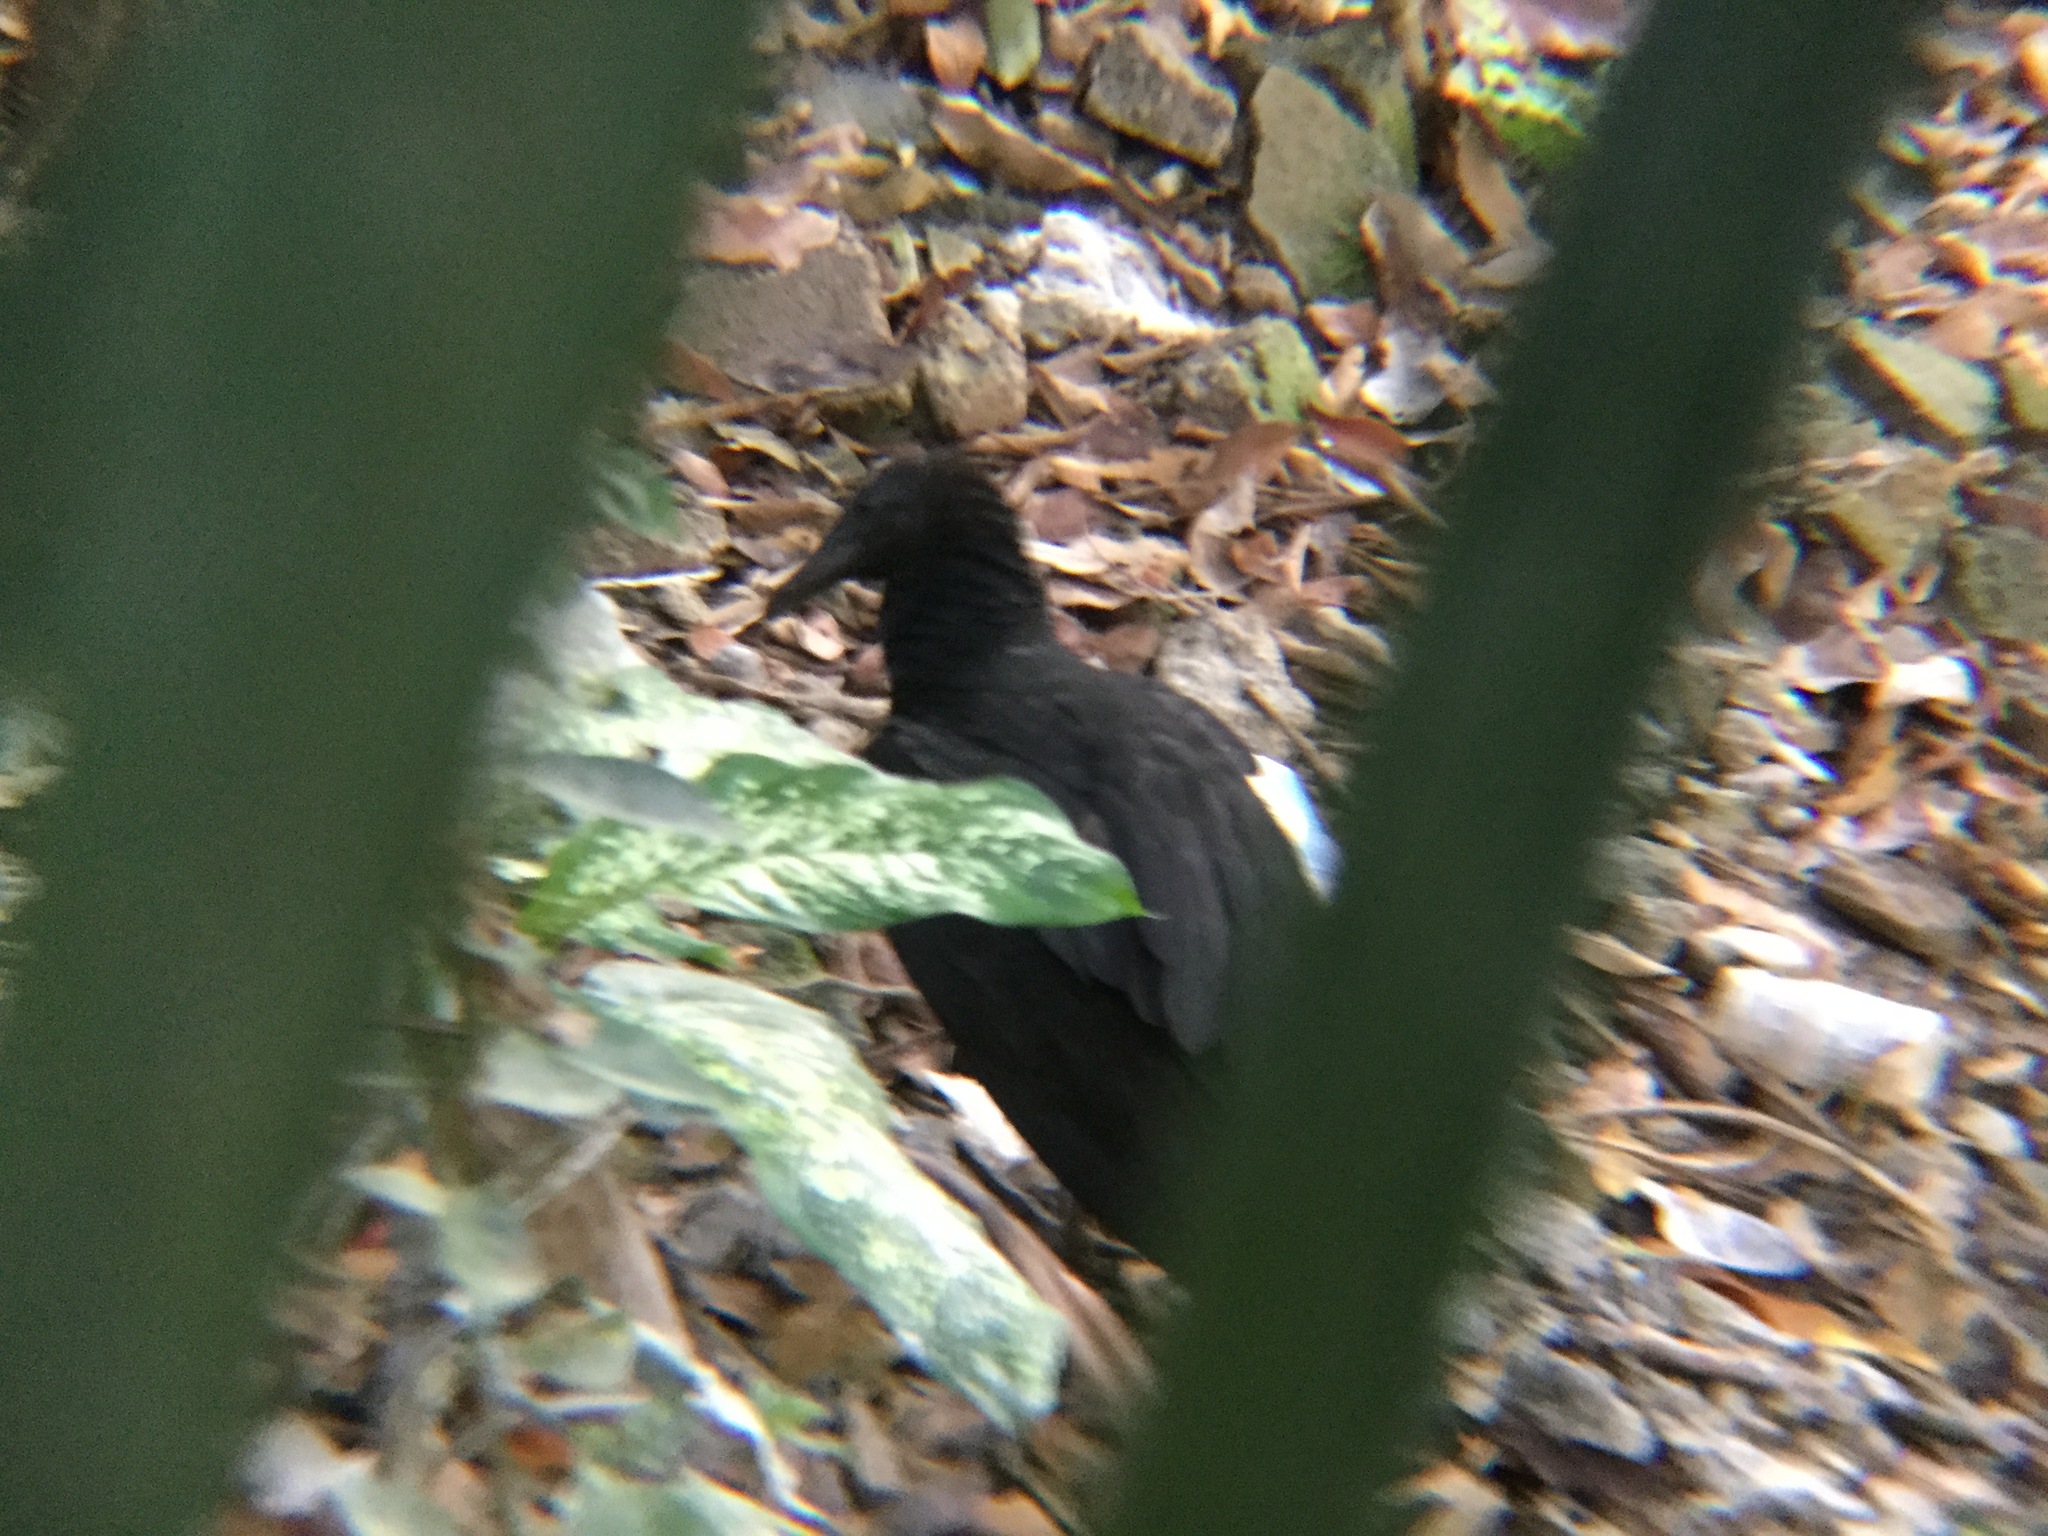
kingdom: Animalia
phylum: Chordata
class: Aves
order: Accipitriformes
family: Cathartidae
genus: Coragyps
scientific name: Coragyps atratus
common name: Black vulture
